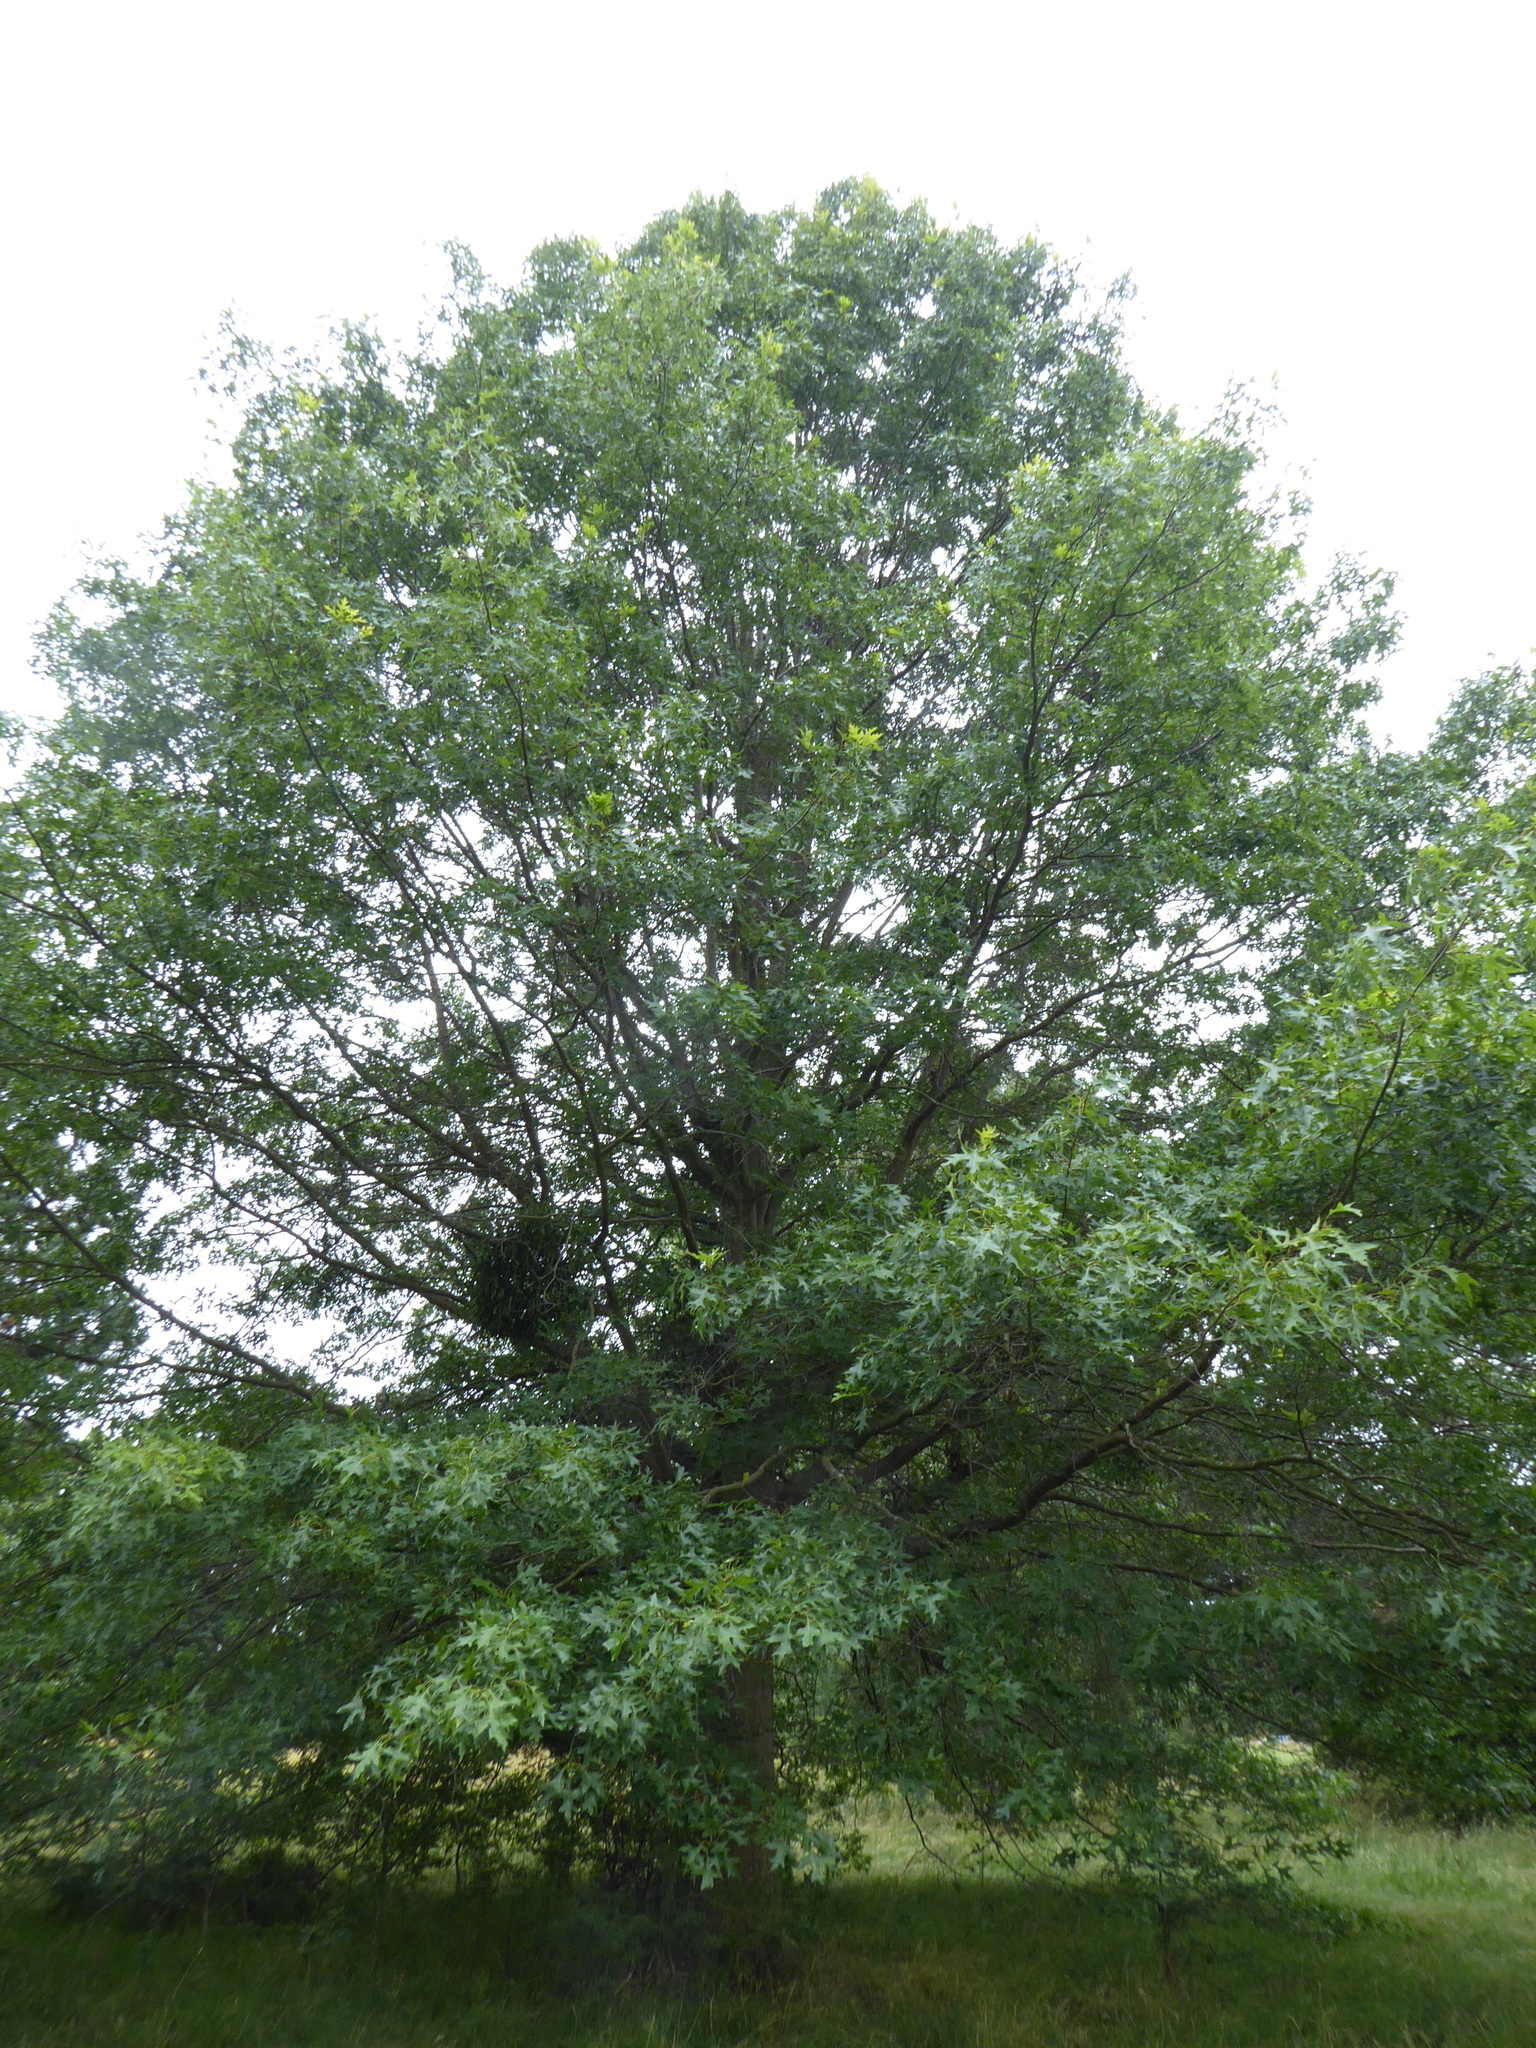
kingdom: Plantae
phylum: Tracheophyta
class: Magnoliopsida
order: Fagales
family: Fagaceae
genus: Quercus
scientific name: Quercus coccinea
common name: Scarlet oak
